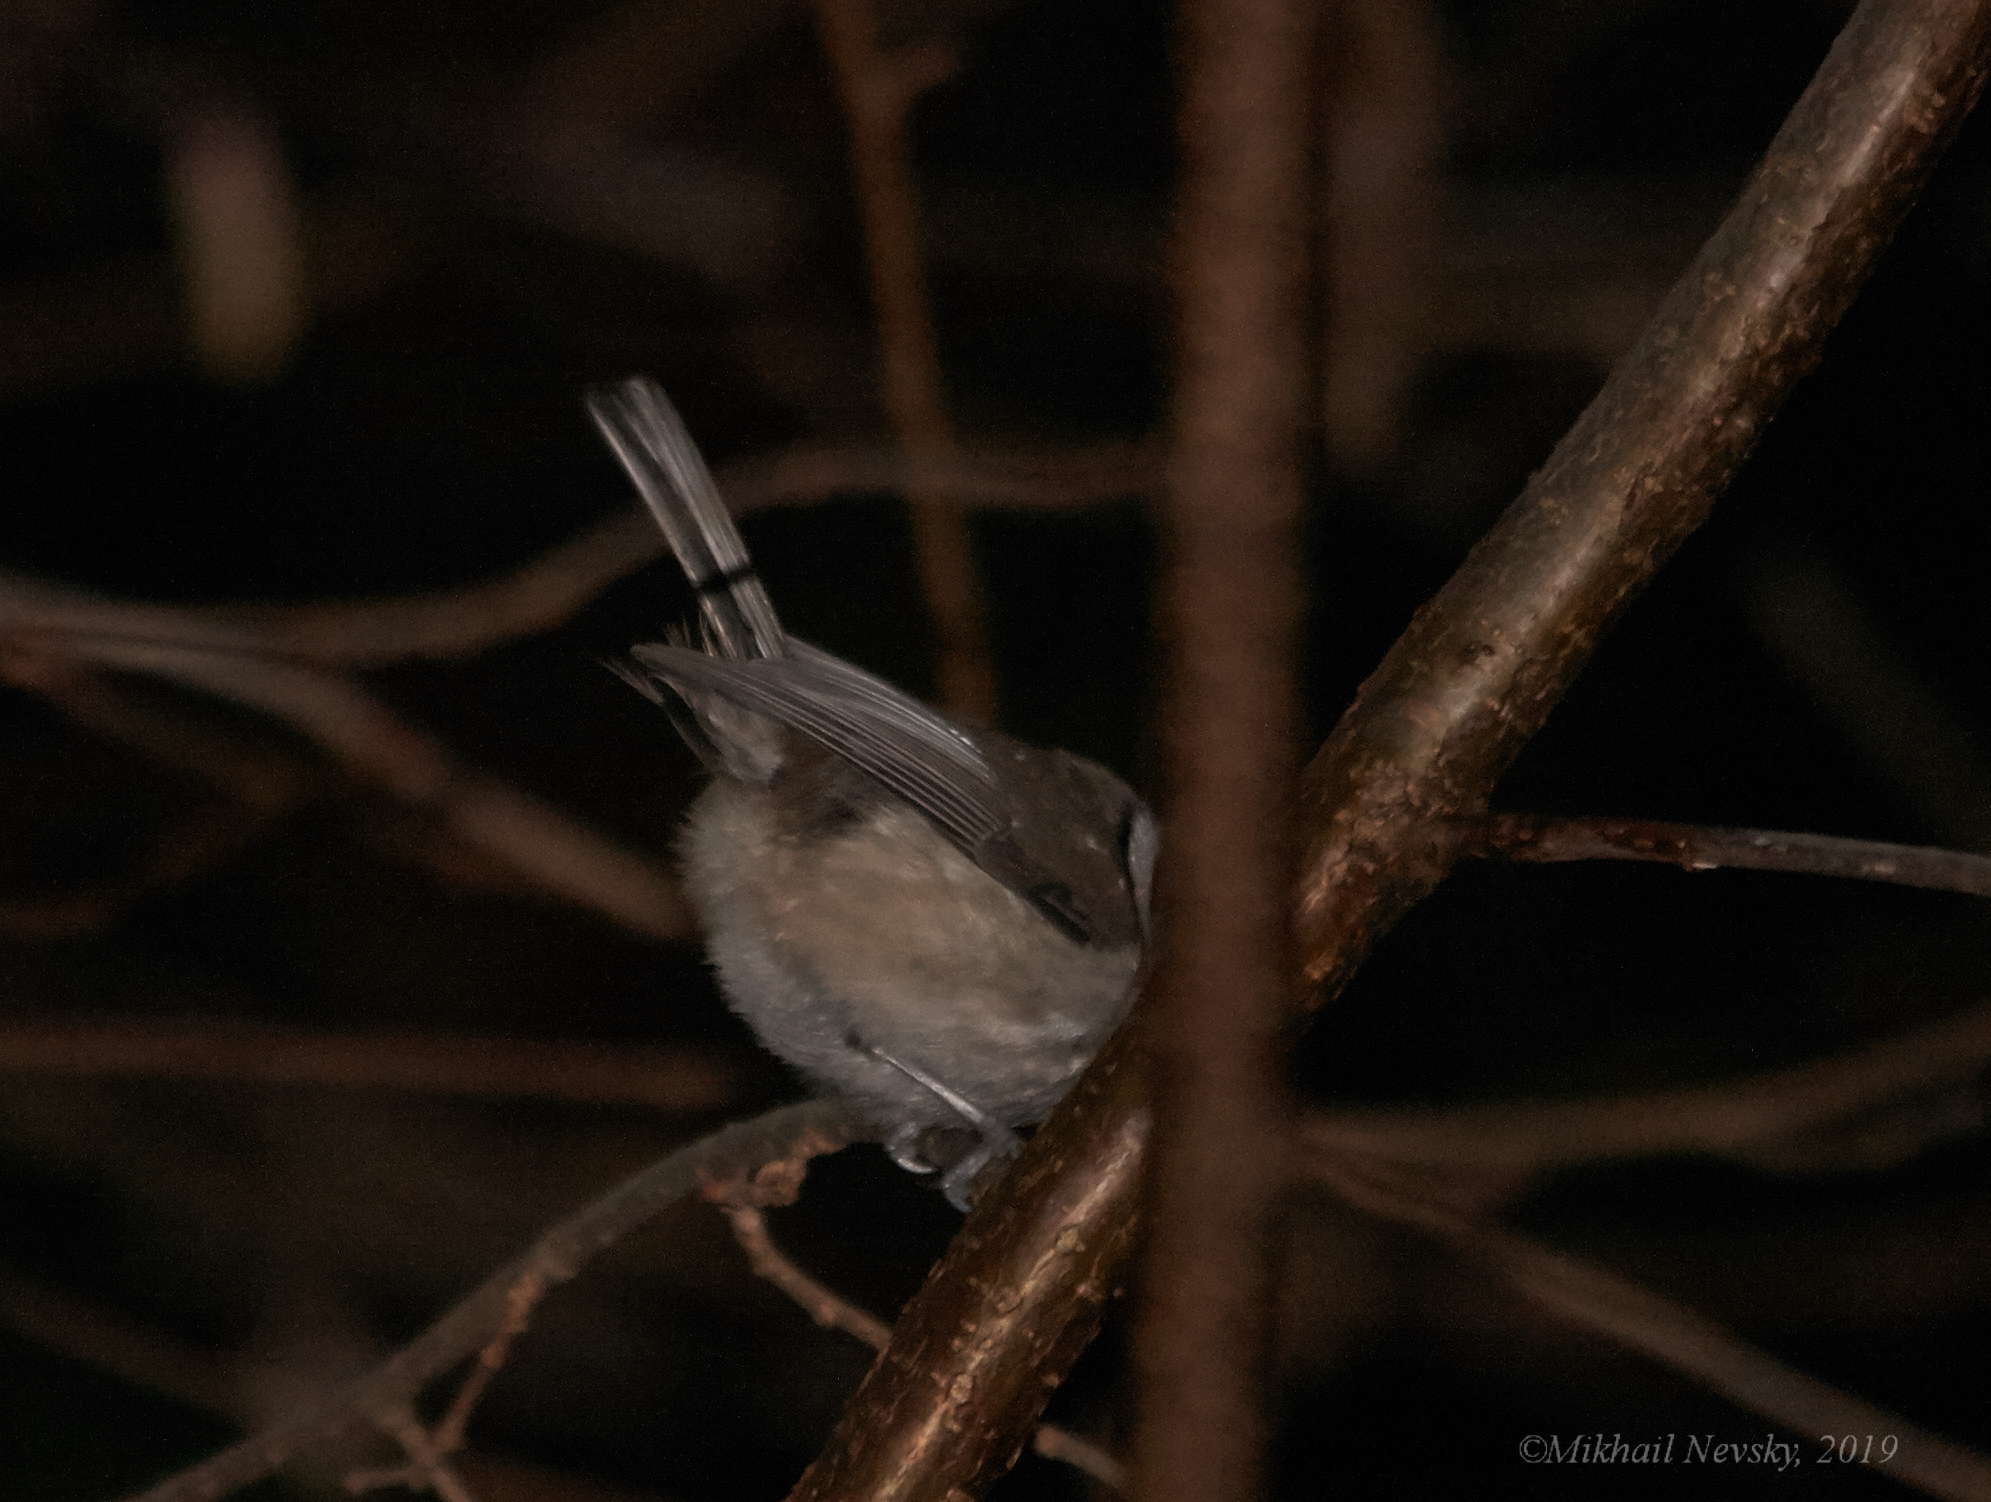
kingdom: Animalia
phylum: Chordata
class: Aves
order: Passeriformes
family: Paridae
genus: Lophophanes
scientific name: Lophophanes cristatus
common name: European crested tit
